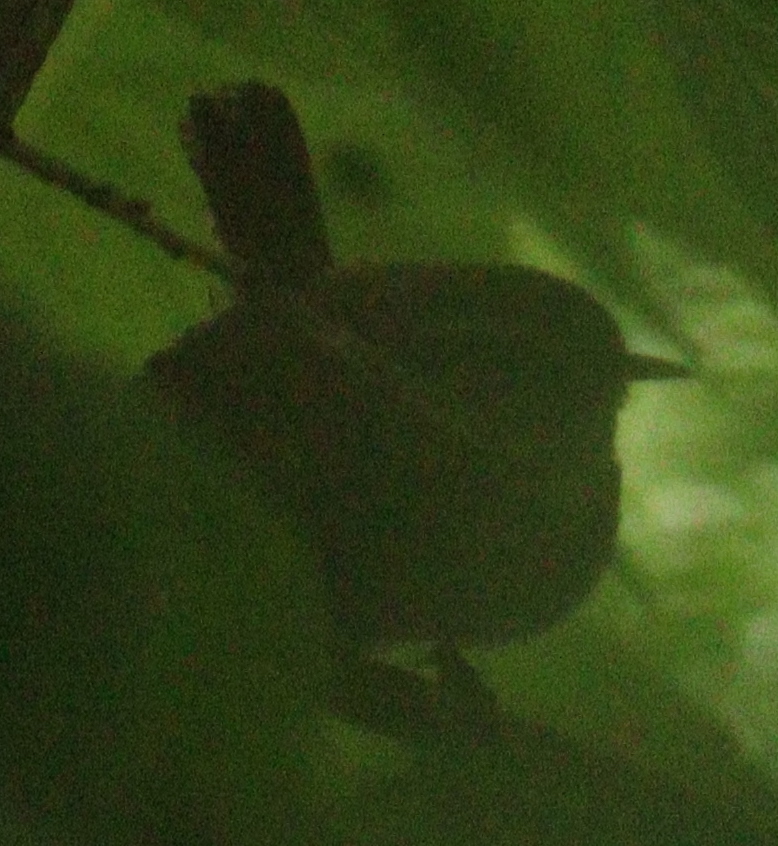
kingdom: Animalia
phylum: Chordata
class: Aves
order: Passeriformes
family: Troglodytidae
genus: Troglodytes
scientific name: Troglodytes troglodytes
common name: Eurasian wren
